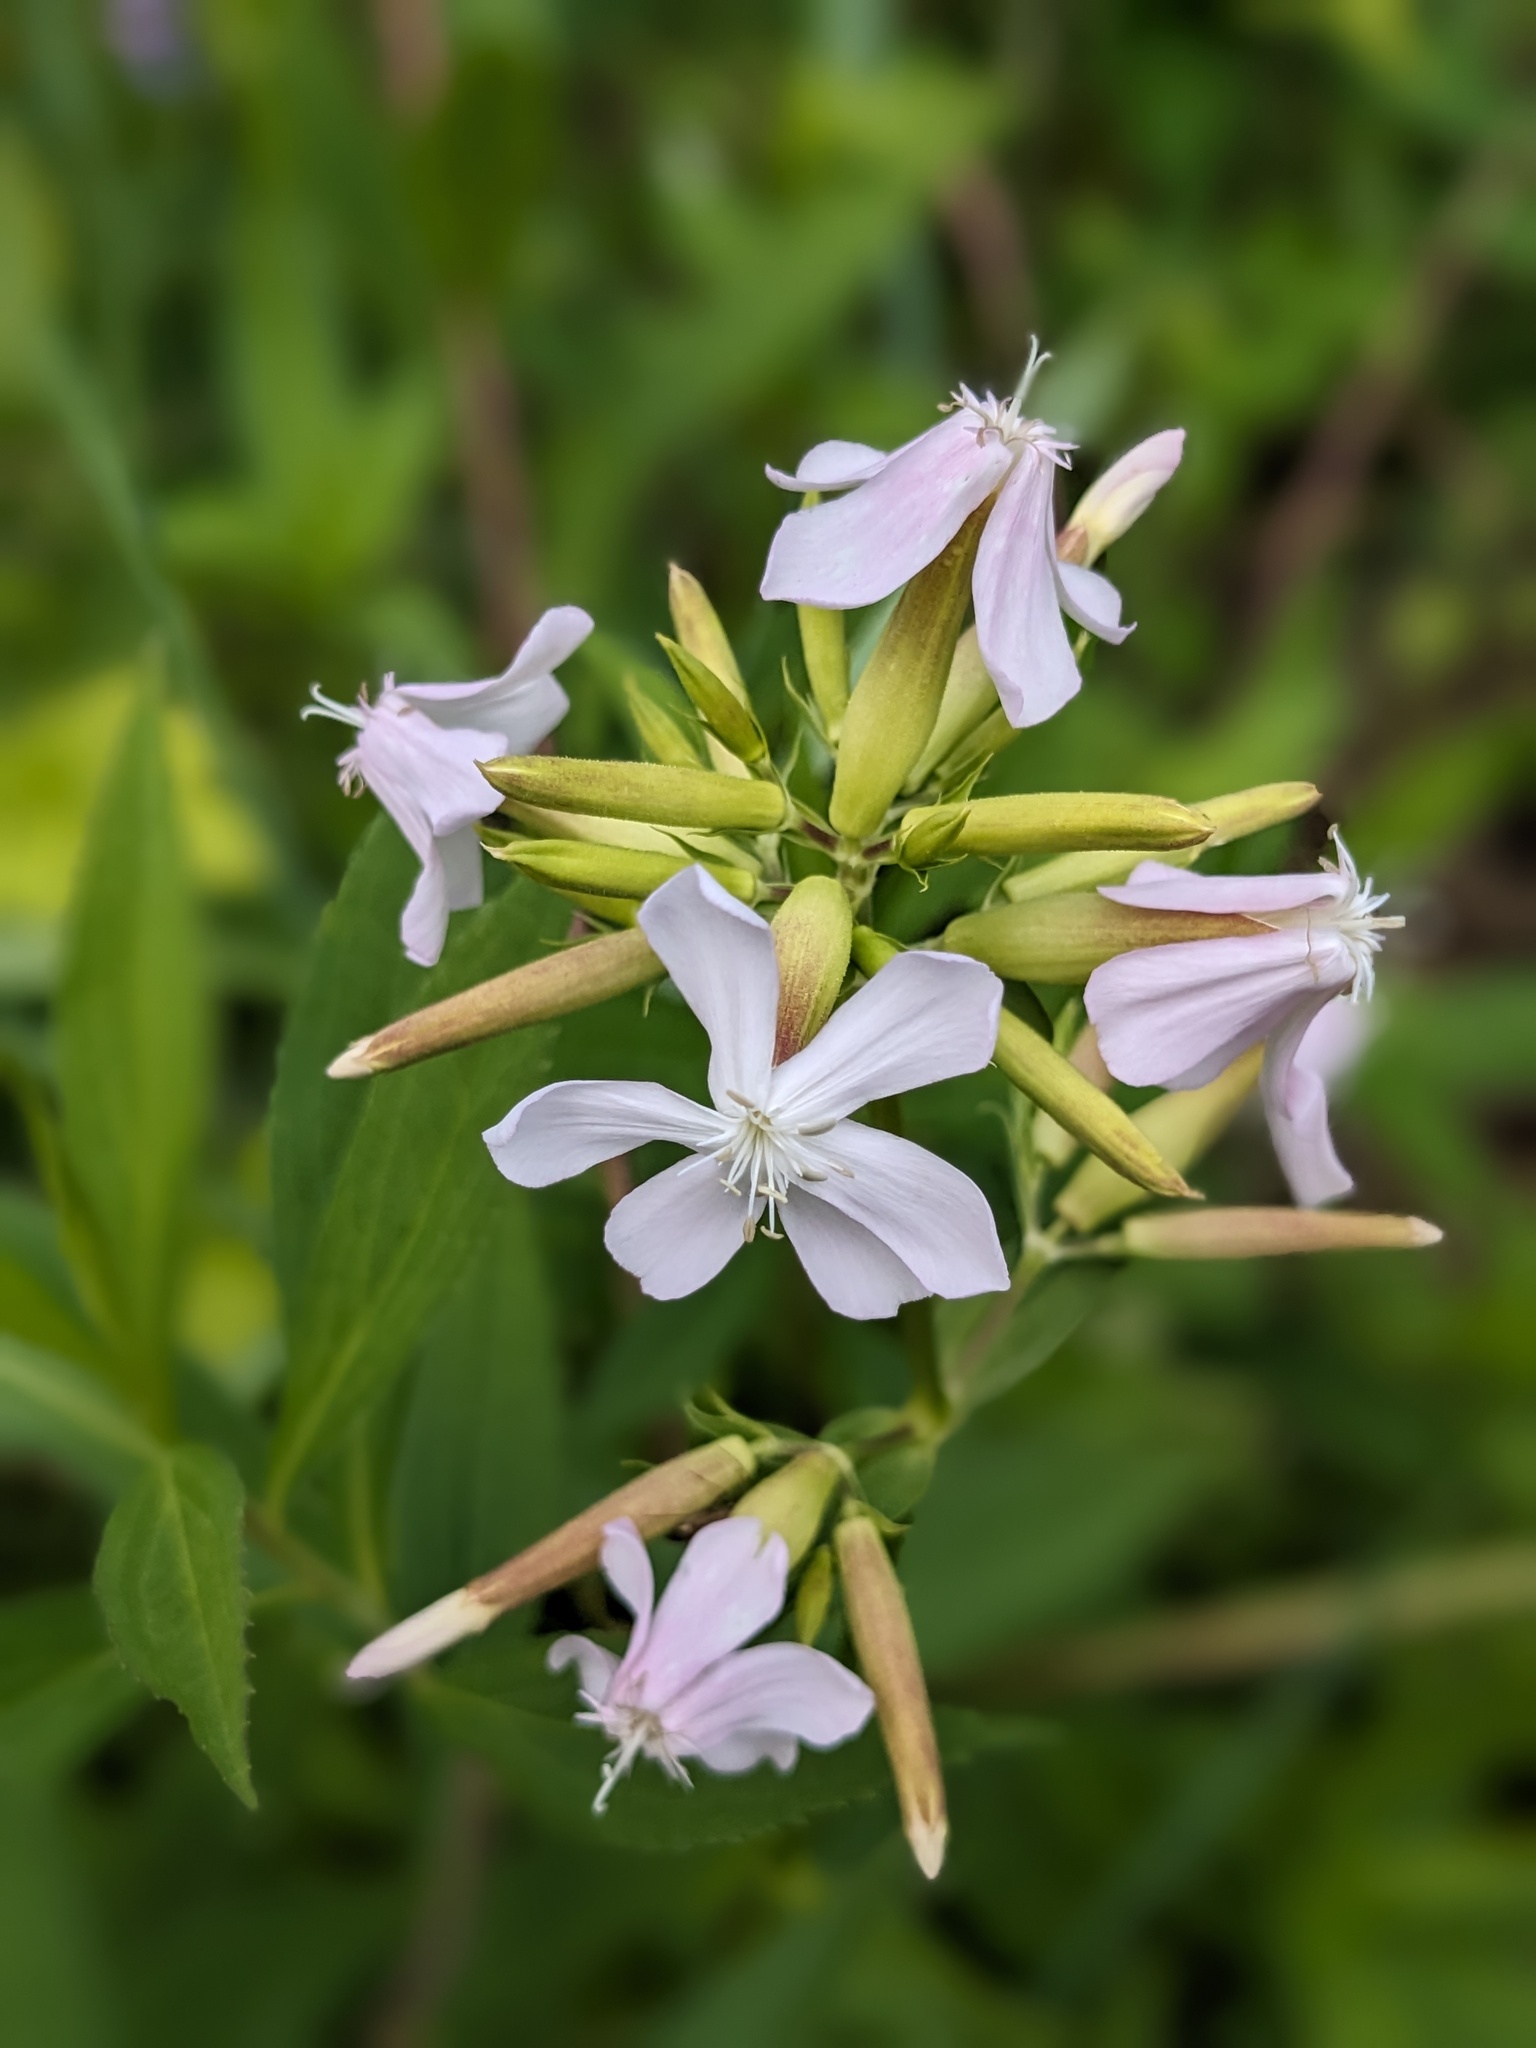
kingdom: Plantae
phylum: Tracheophyta
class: Magnoliopsida
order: Caryophyllales
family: Caryophyllaceae
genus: Saponaria
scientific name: Saponaria officinalis
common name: Soapwort
